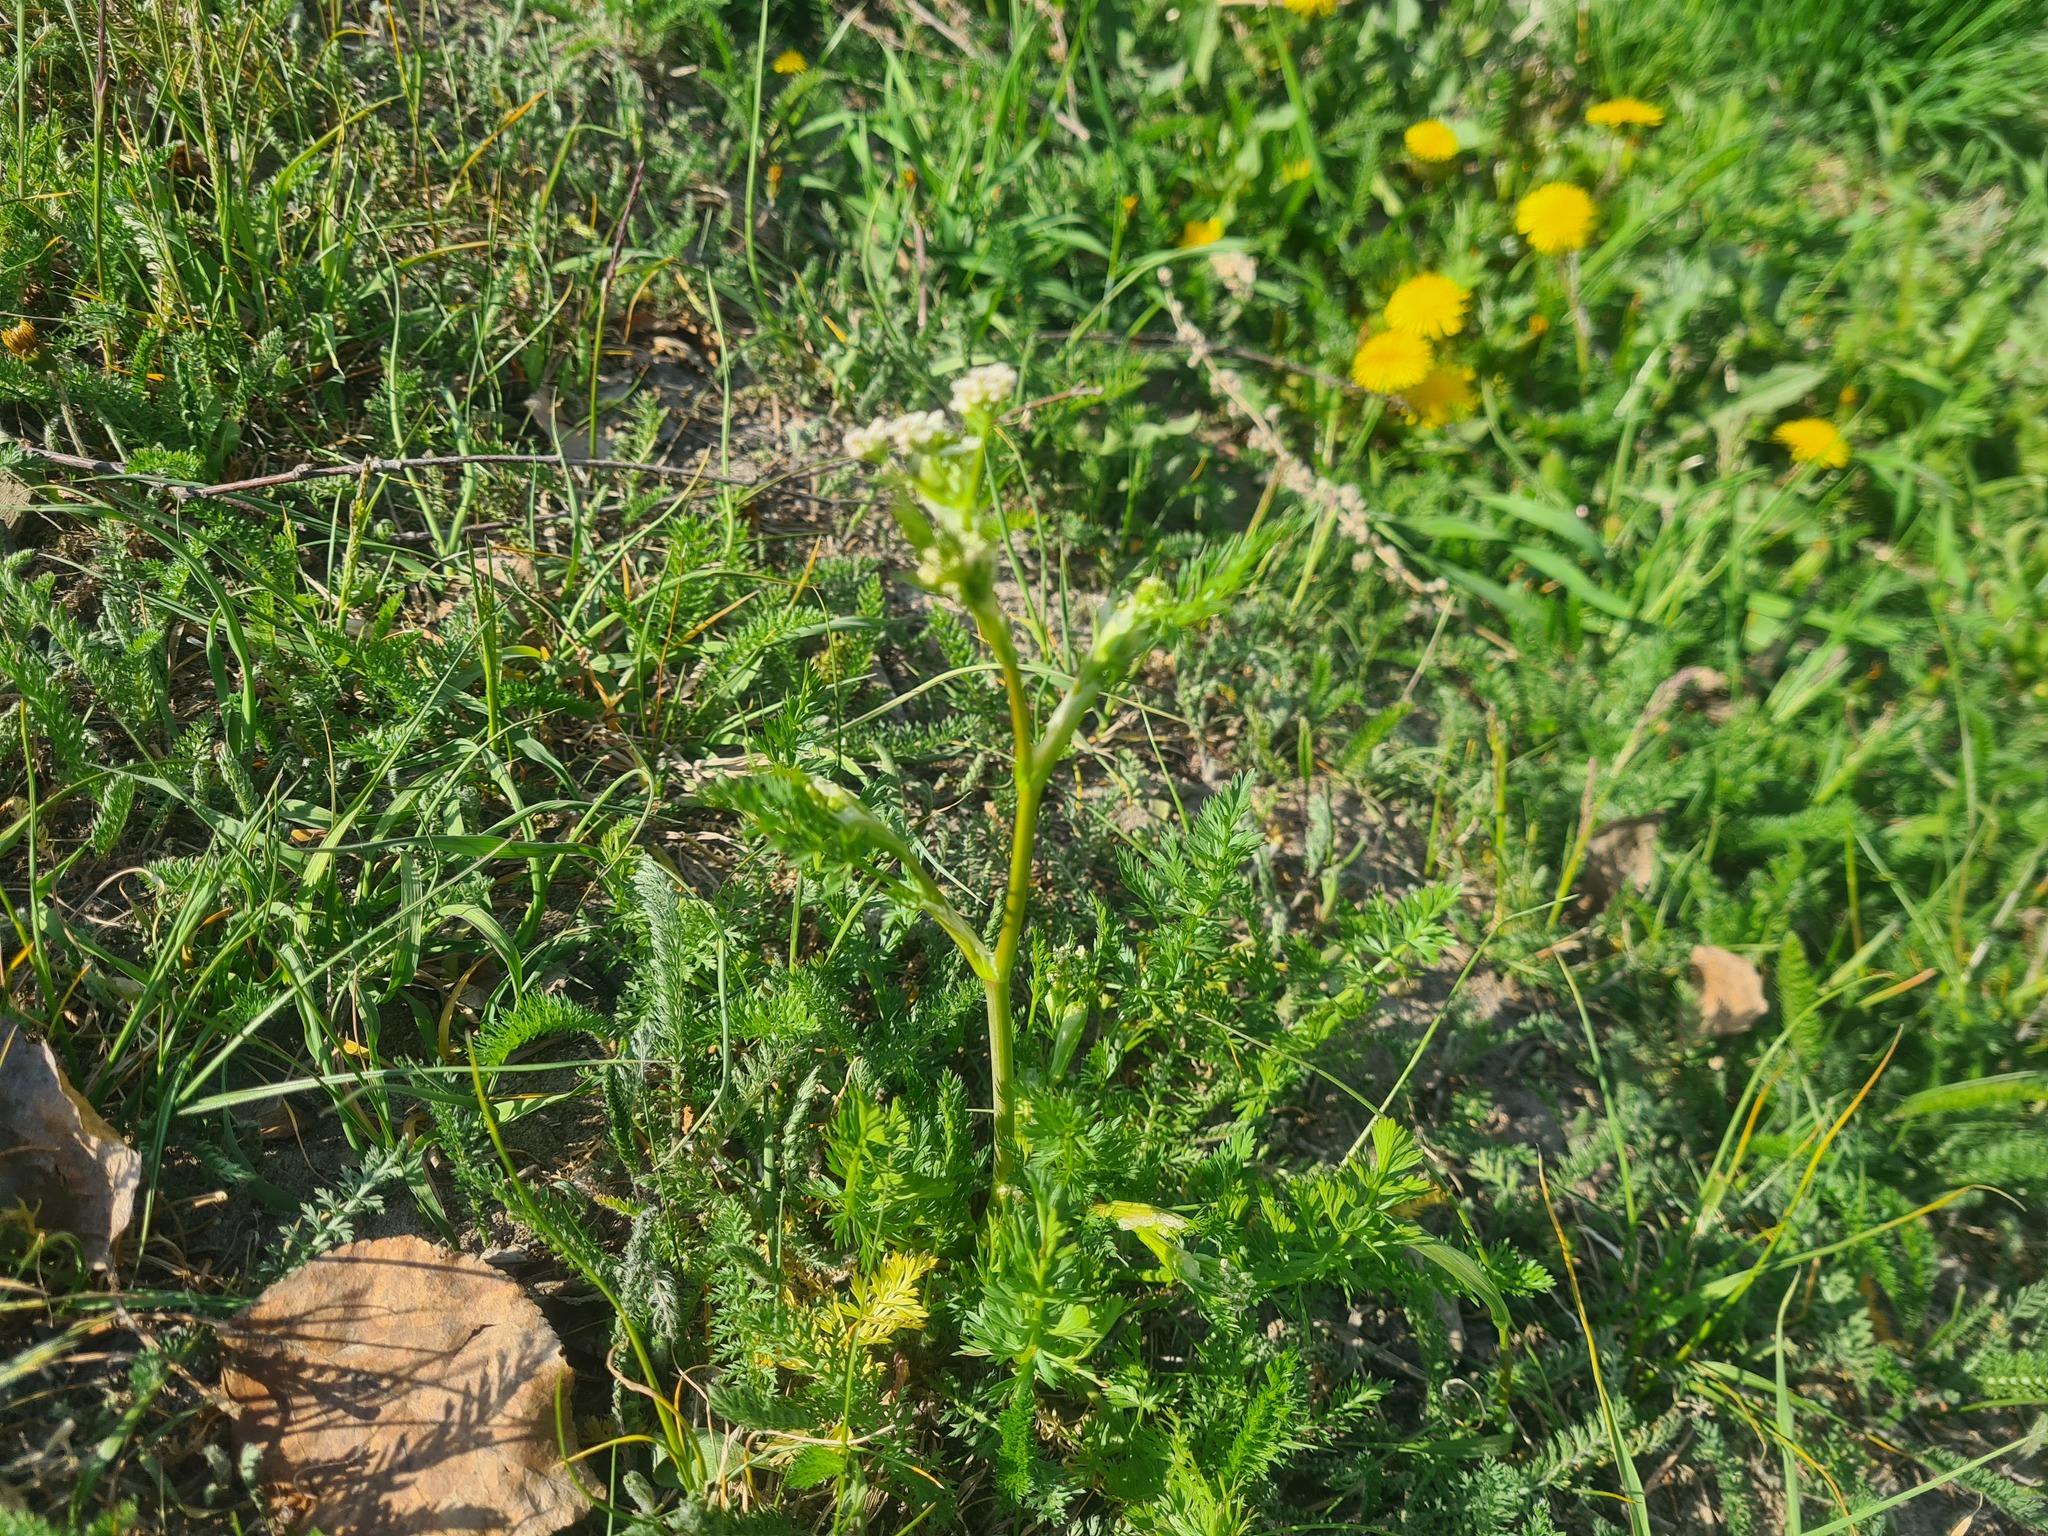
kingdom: Plantae
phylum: Tracheophyta
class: Magnoliopsida
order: Apiales
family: Apiaceae
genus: Carum
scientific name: Carum carvi
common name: Caraway
